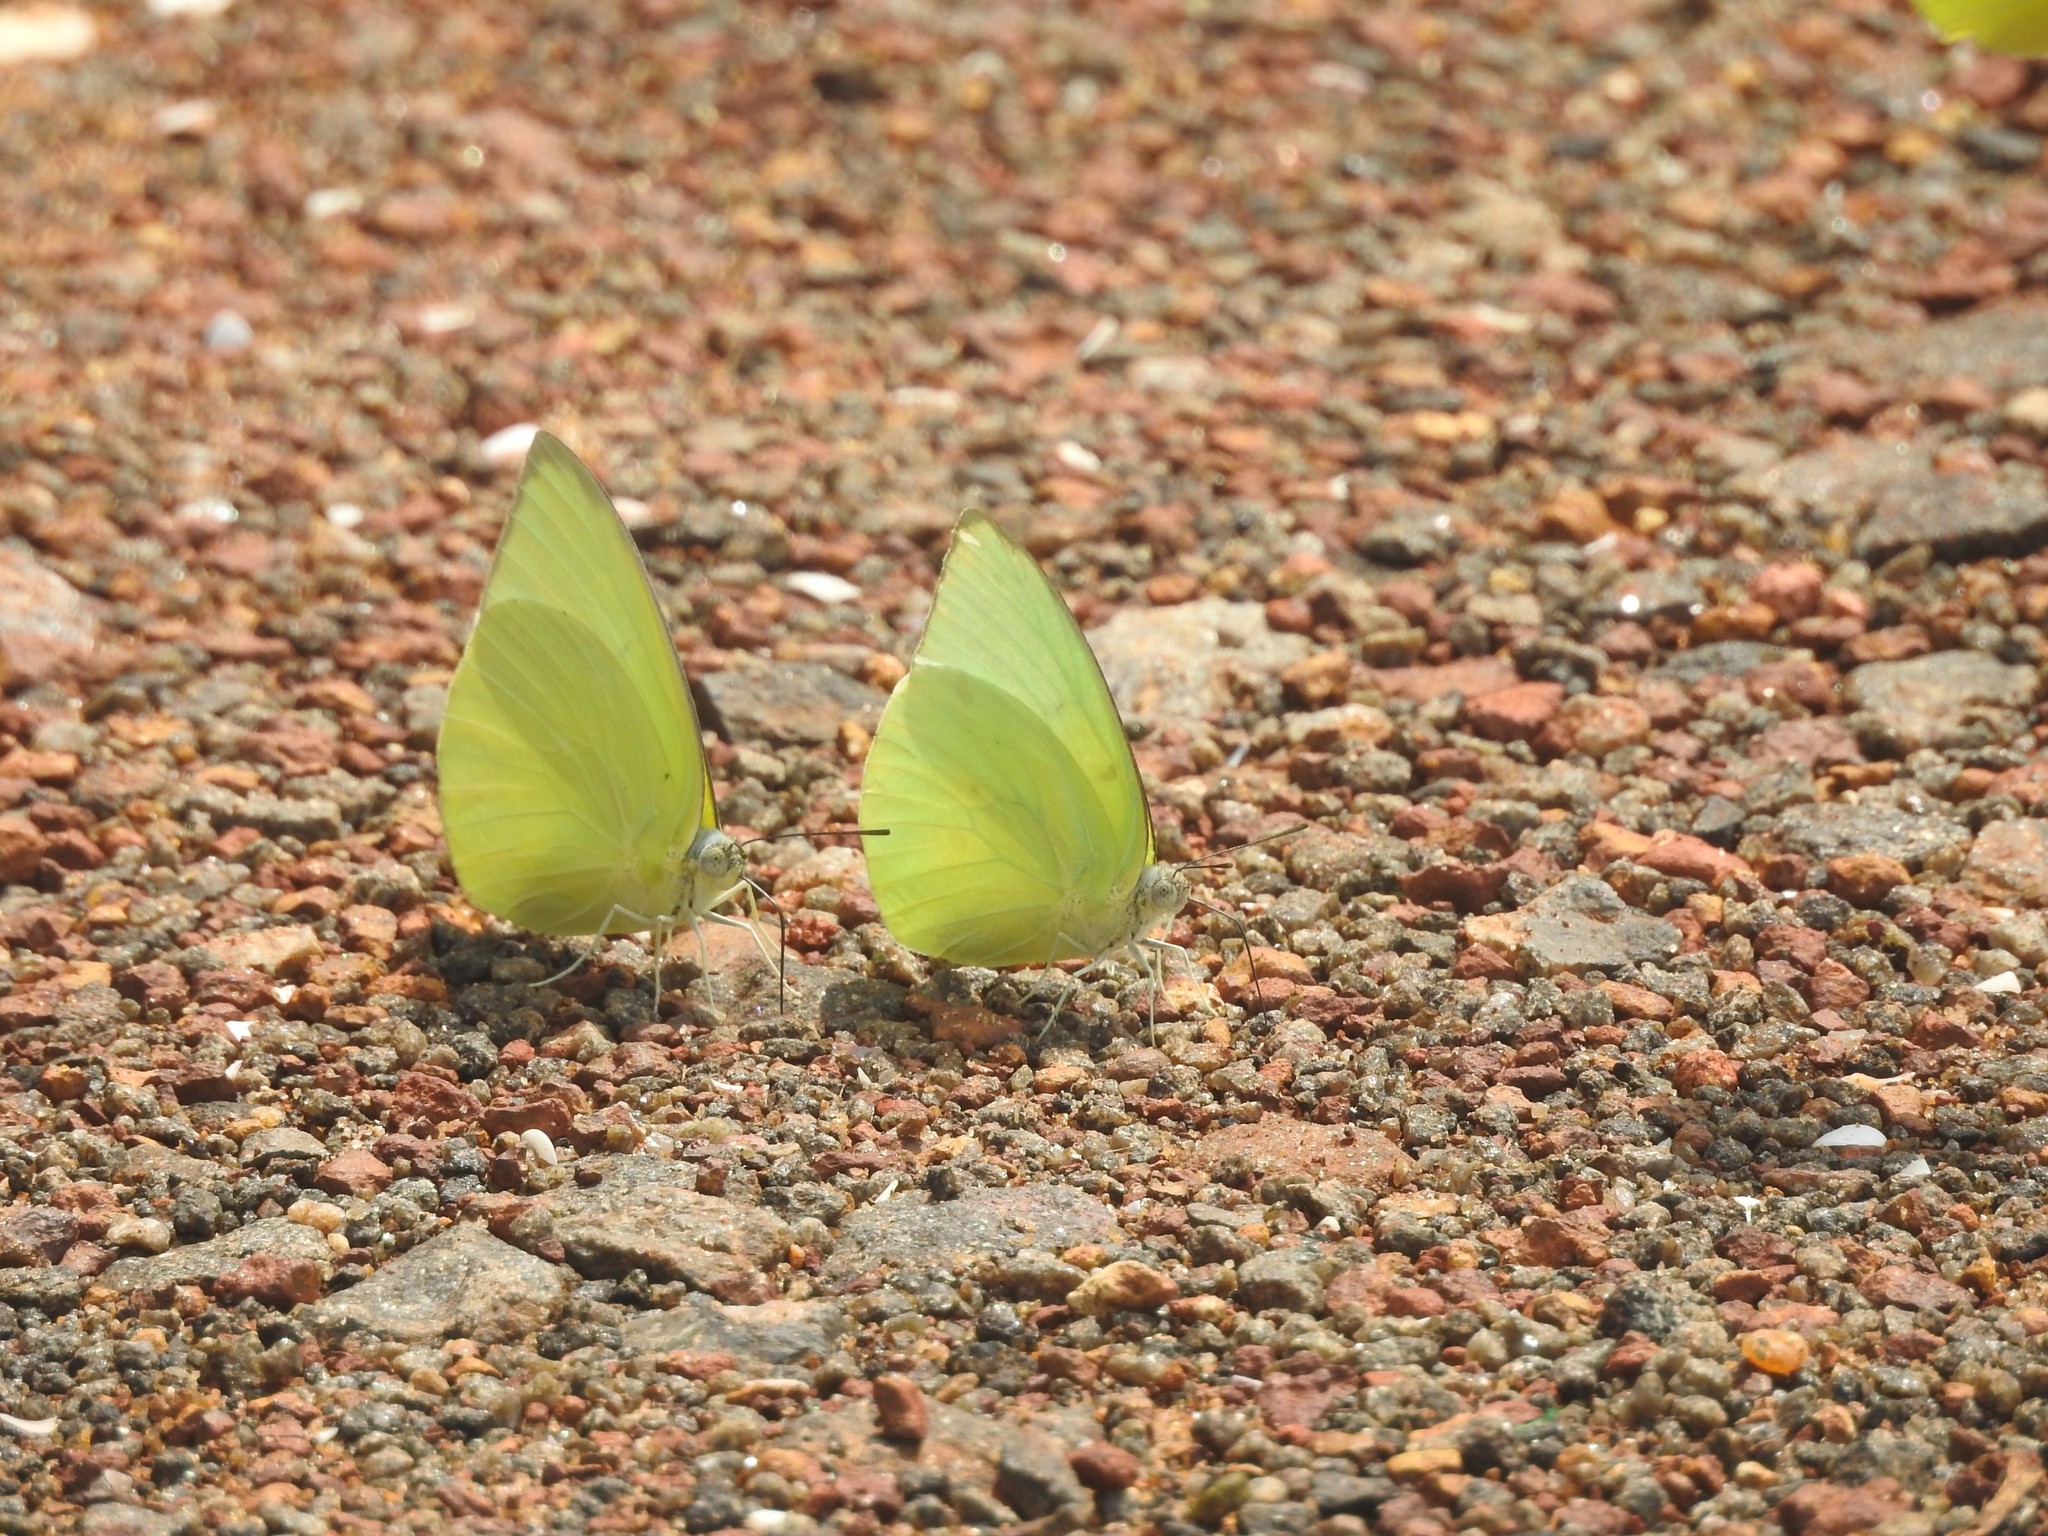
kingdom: Animalia
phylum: Arthropoda
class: Insecta
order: Lepidoptera
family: Pieridae
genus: Catopsilia
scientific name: Catopsilia pomona
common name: Common emigrant
